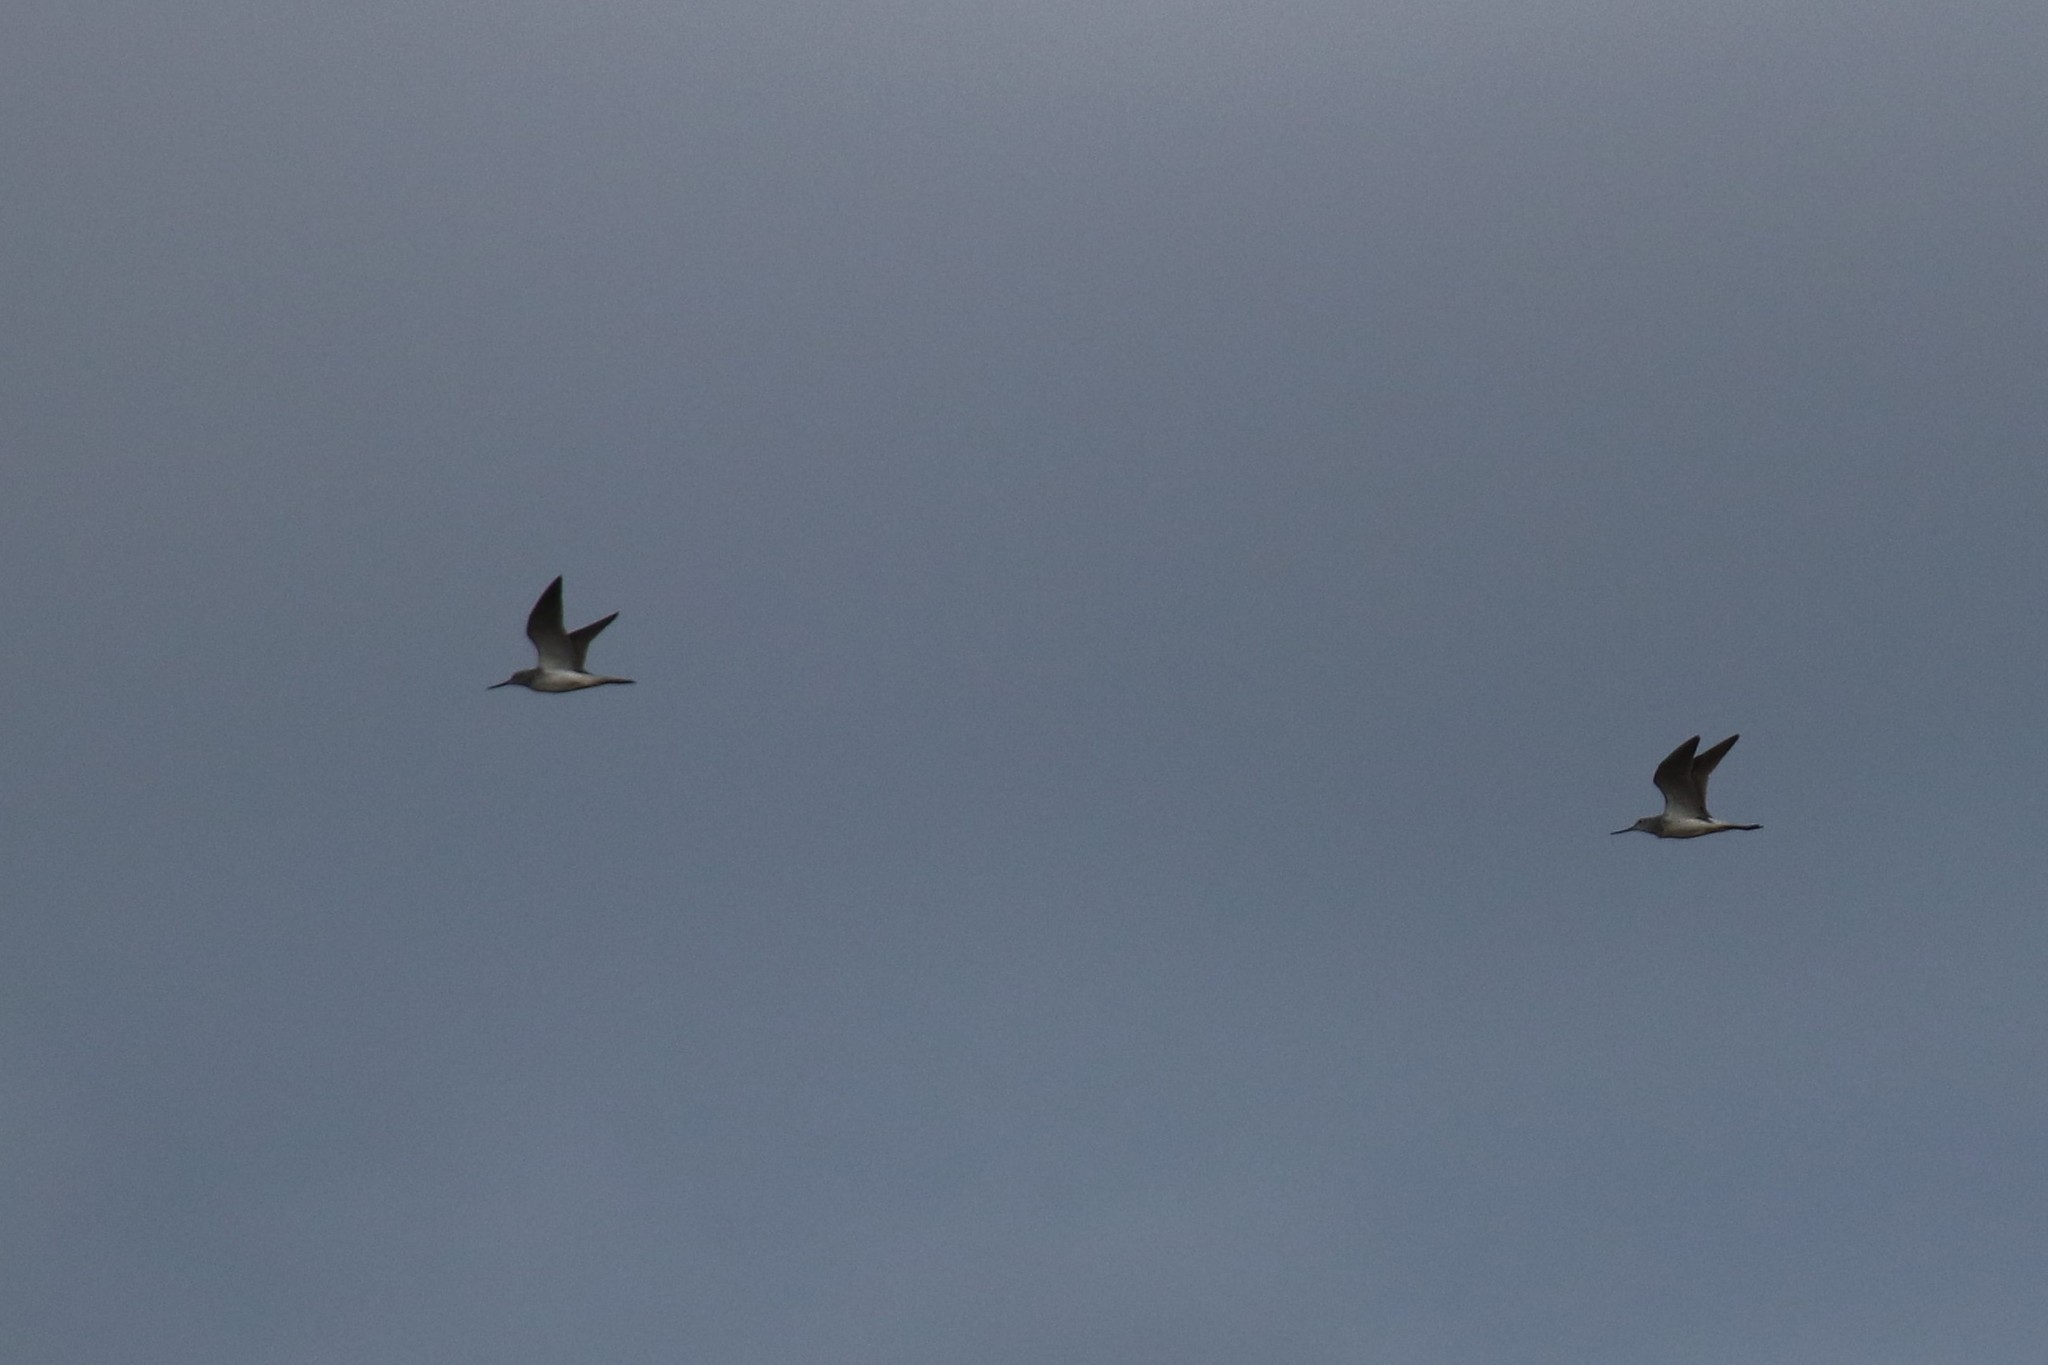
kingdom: Animalia
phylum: Chordata
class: Aves
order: Charadriiformes
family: Scolopacidae
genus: Tringa
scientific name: Tringa nebularia
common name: Common greenshank
